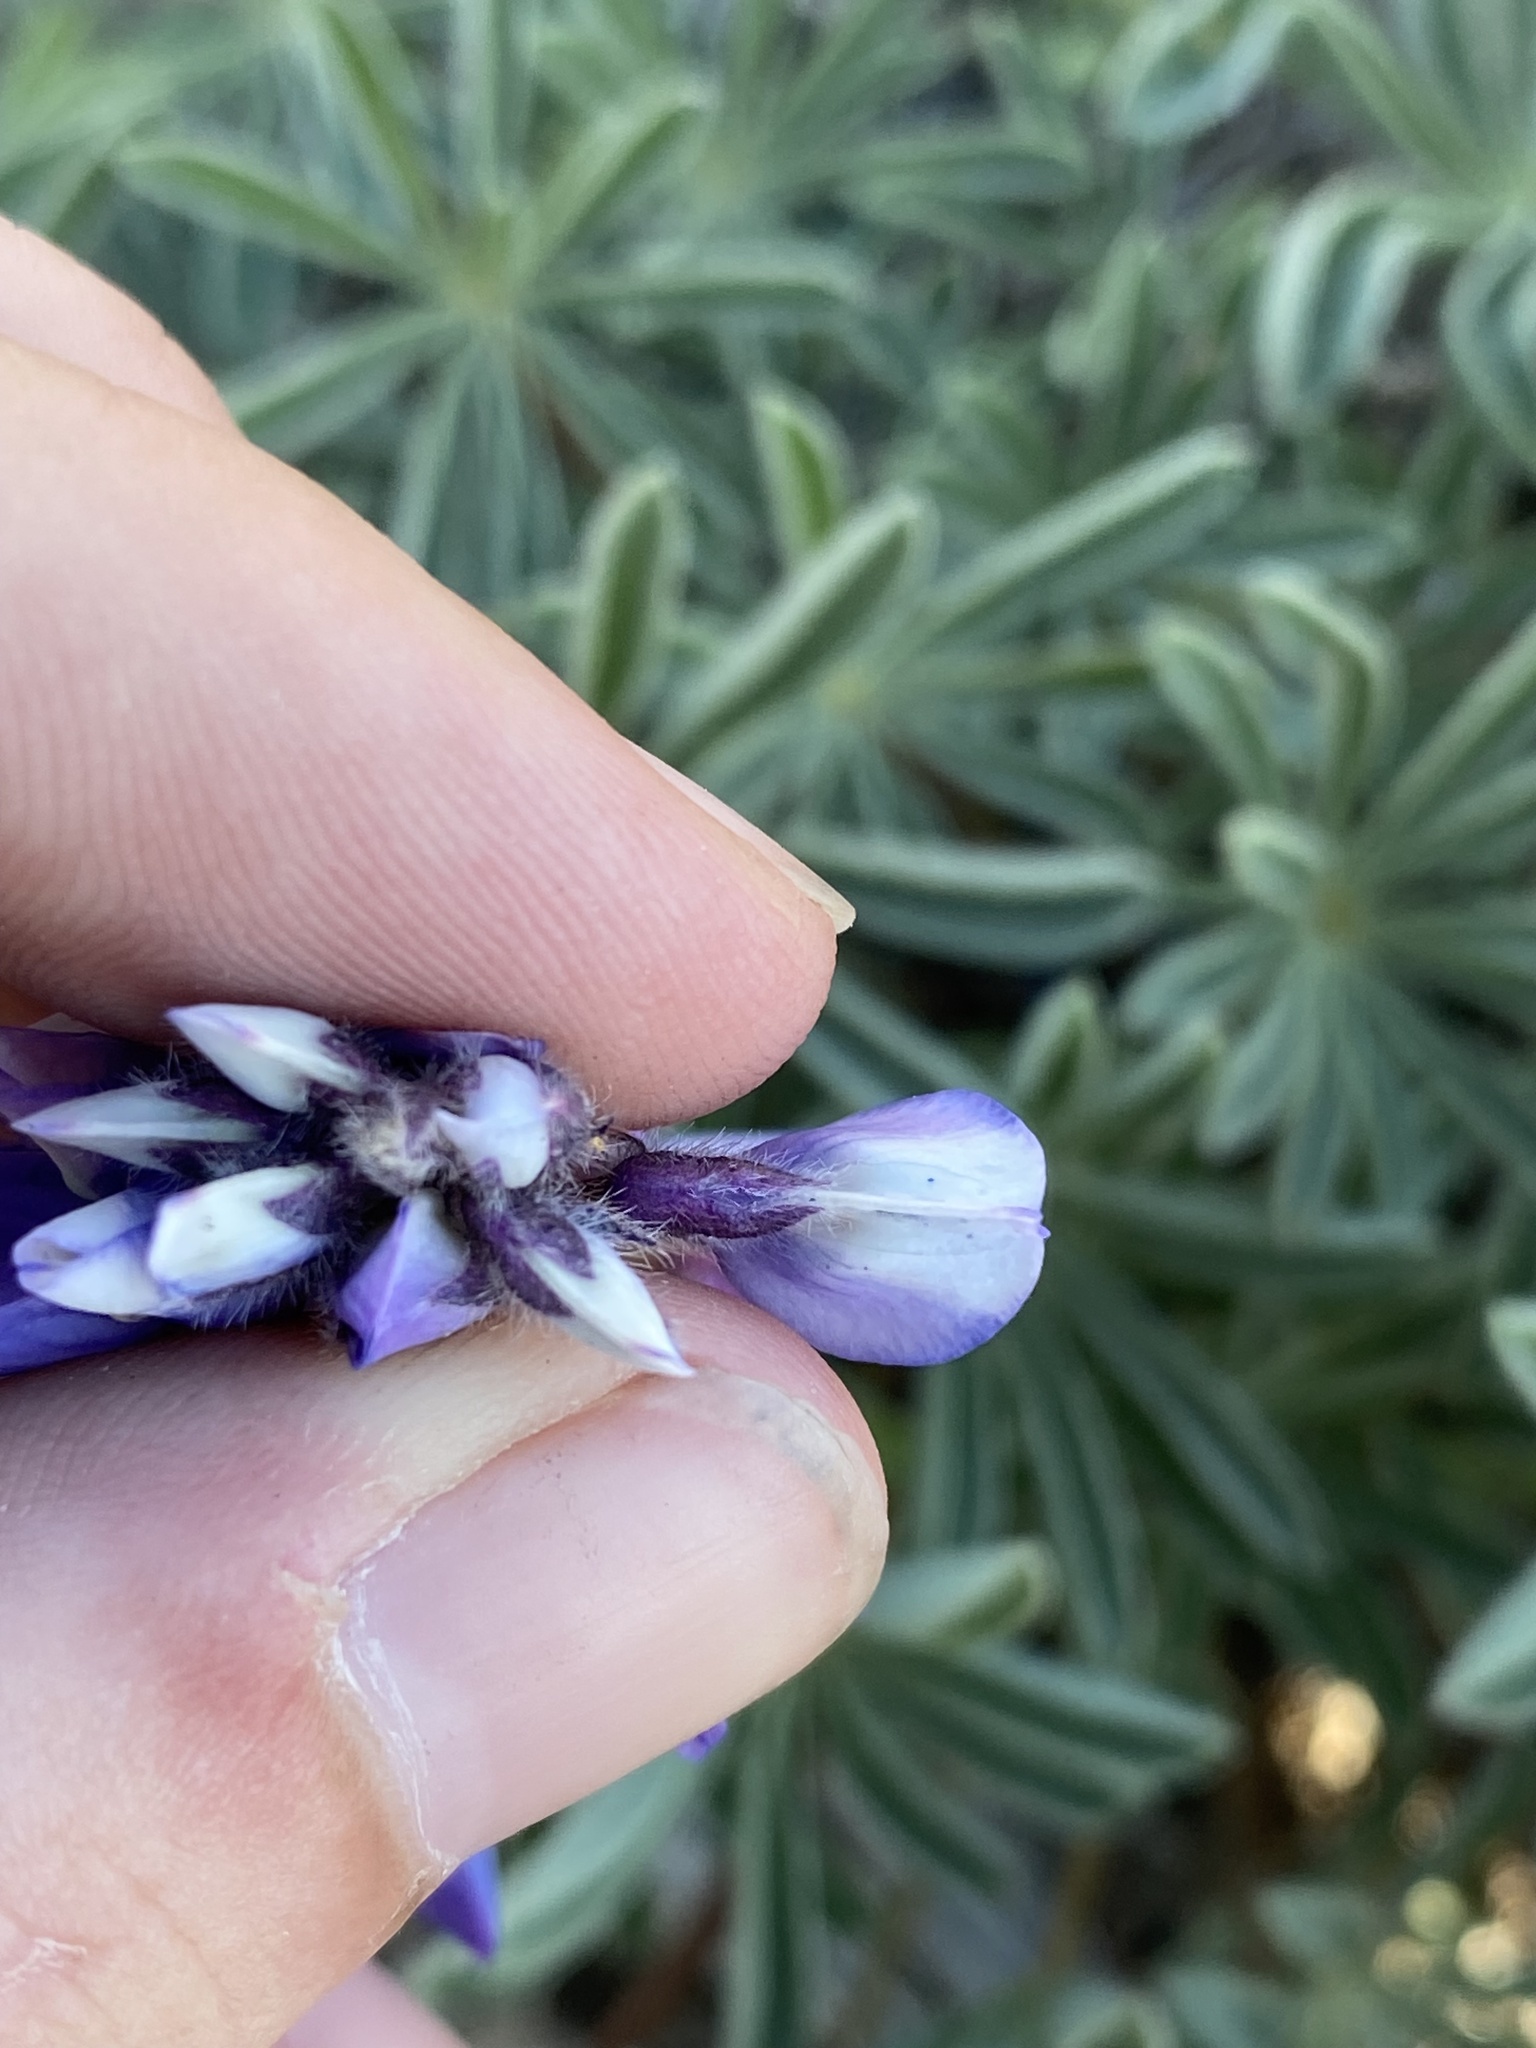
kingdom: Plantae
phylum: Tracheophyta
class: Magnoliopsida
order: Fabales
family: Fabaceae
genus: Lupinus
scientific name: Lupinus saxosus
